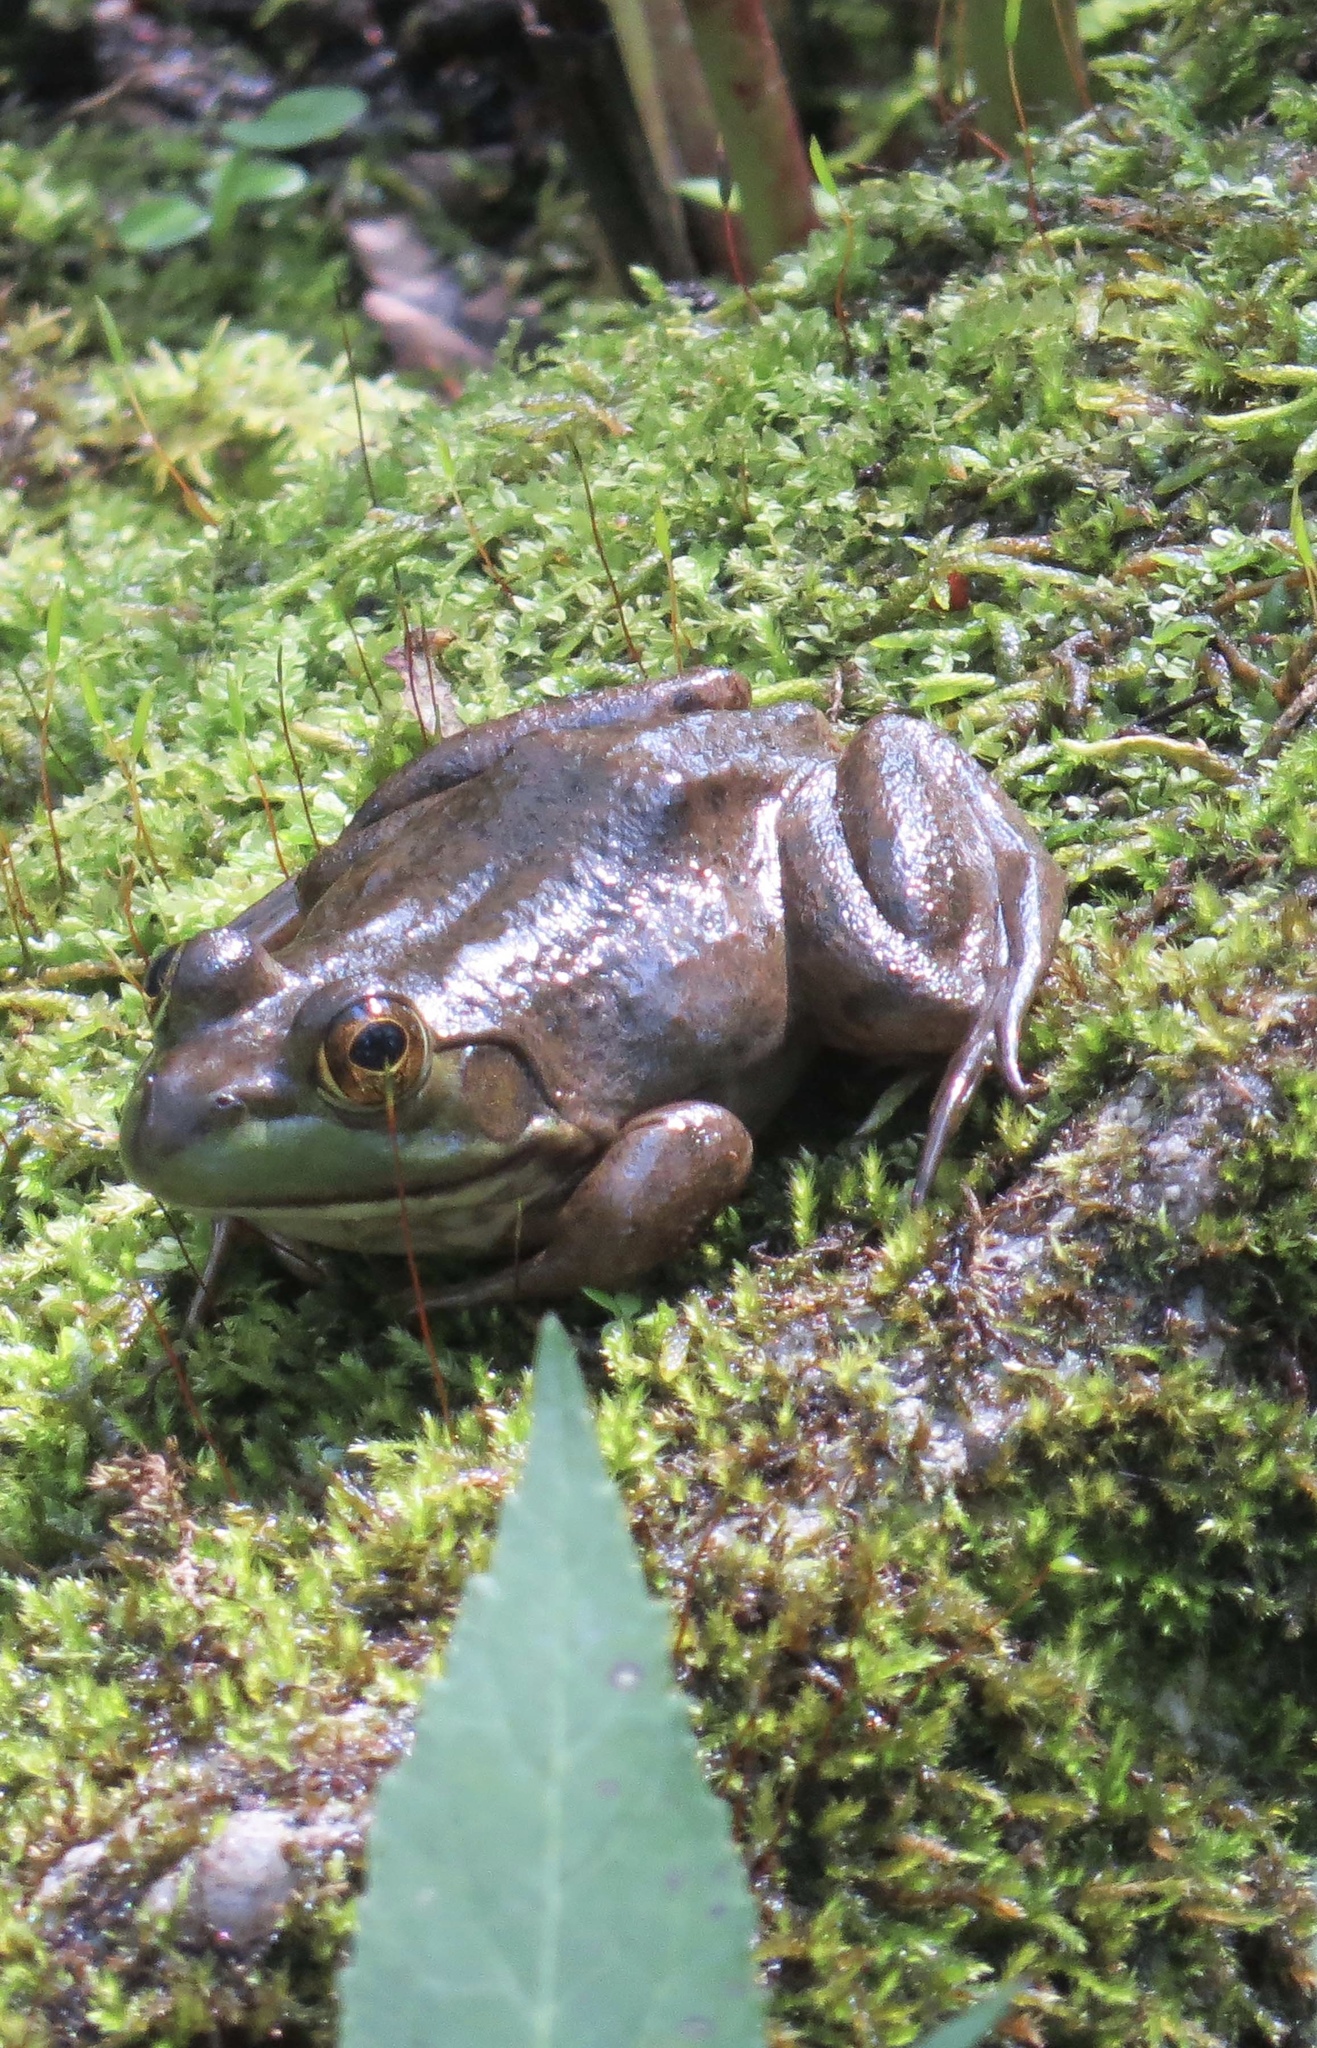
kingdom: Animalia
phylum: Chordata
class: Amphibia
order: Anura
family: Ranidae
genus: Lithobates
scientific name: Lithobates catesbeianus
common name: American bullfrog
